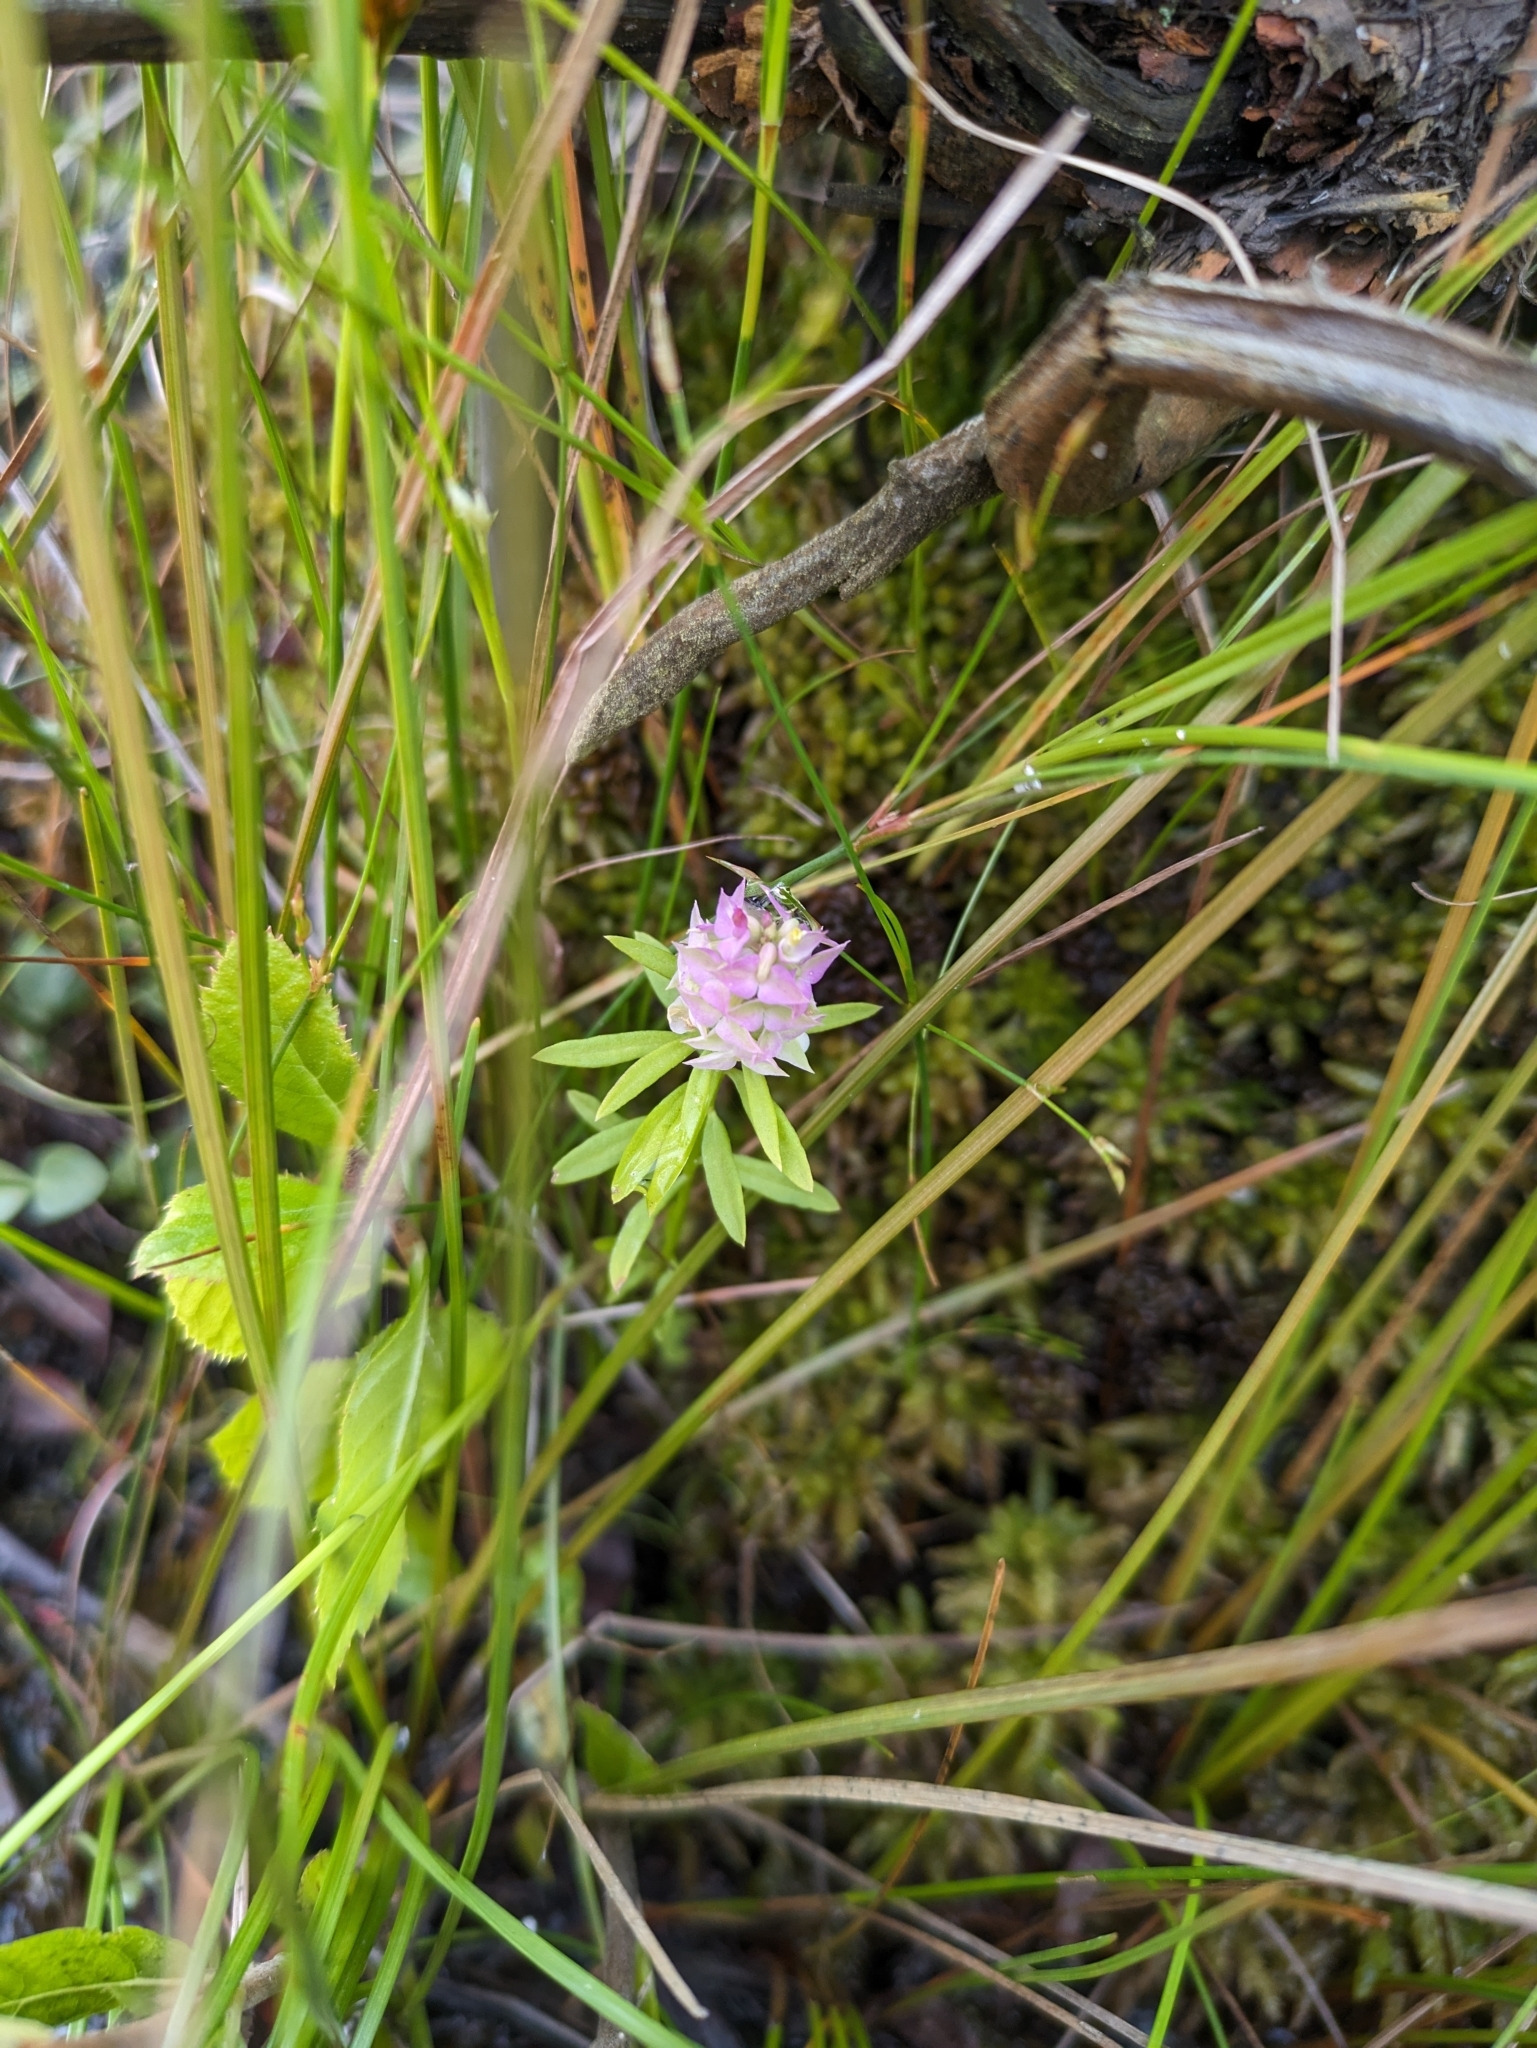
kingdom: Plantae
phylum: Tracheophyta
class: Magnoliopsida
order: Fabales
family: Polygalaceae
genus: Polygala
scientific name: Polygala cruciata
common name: Drumheads
